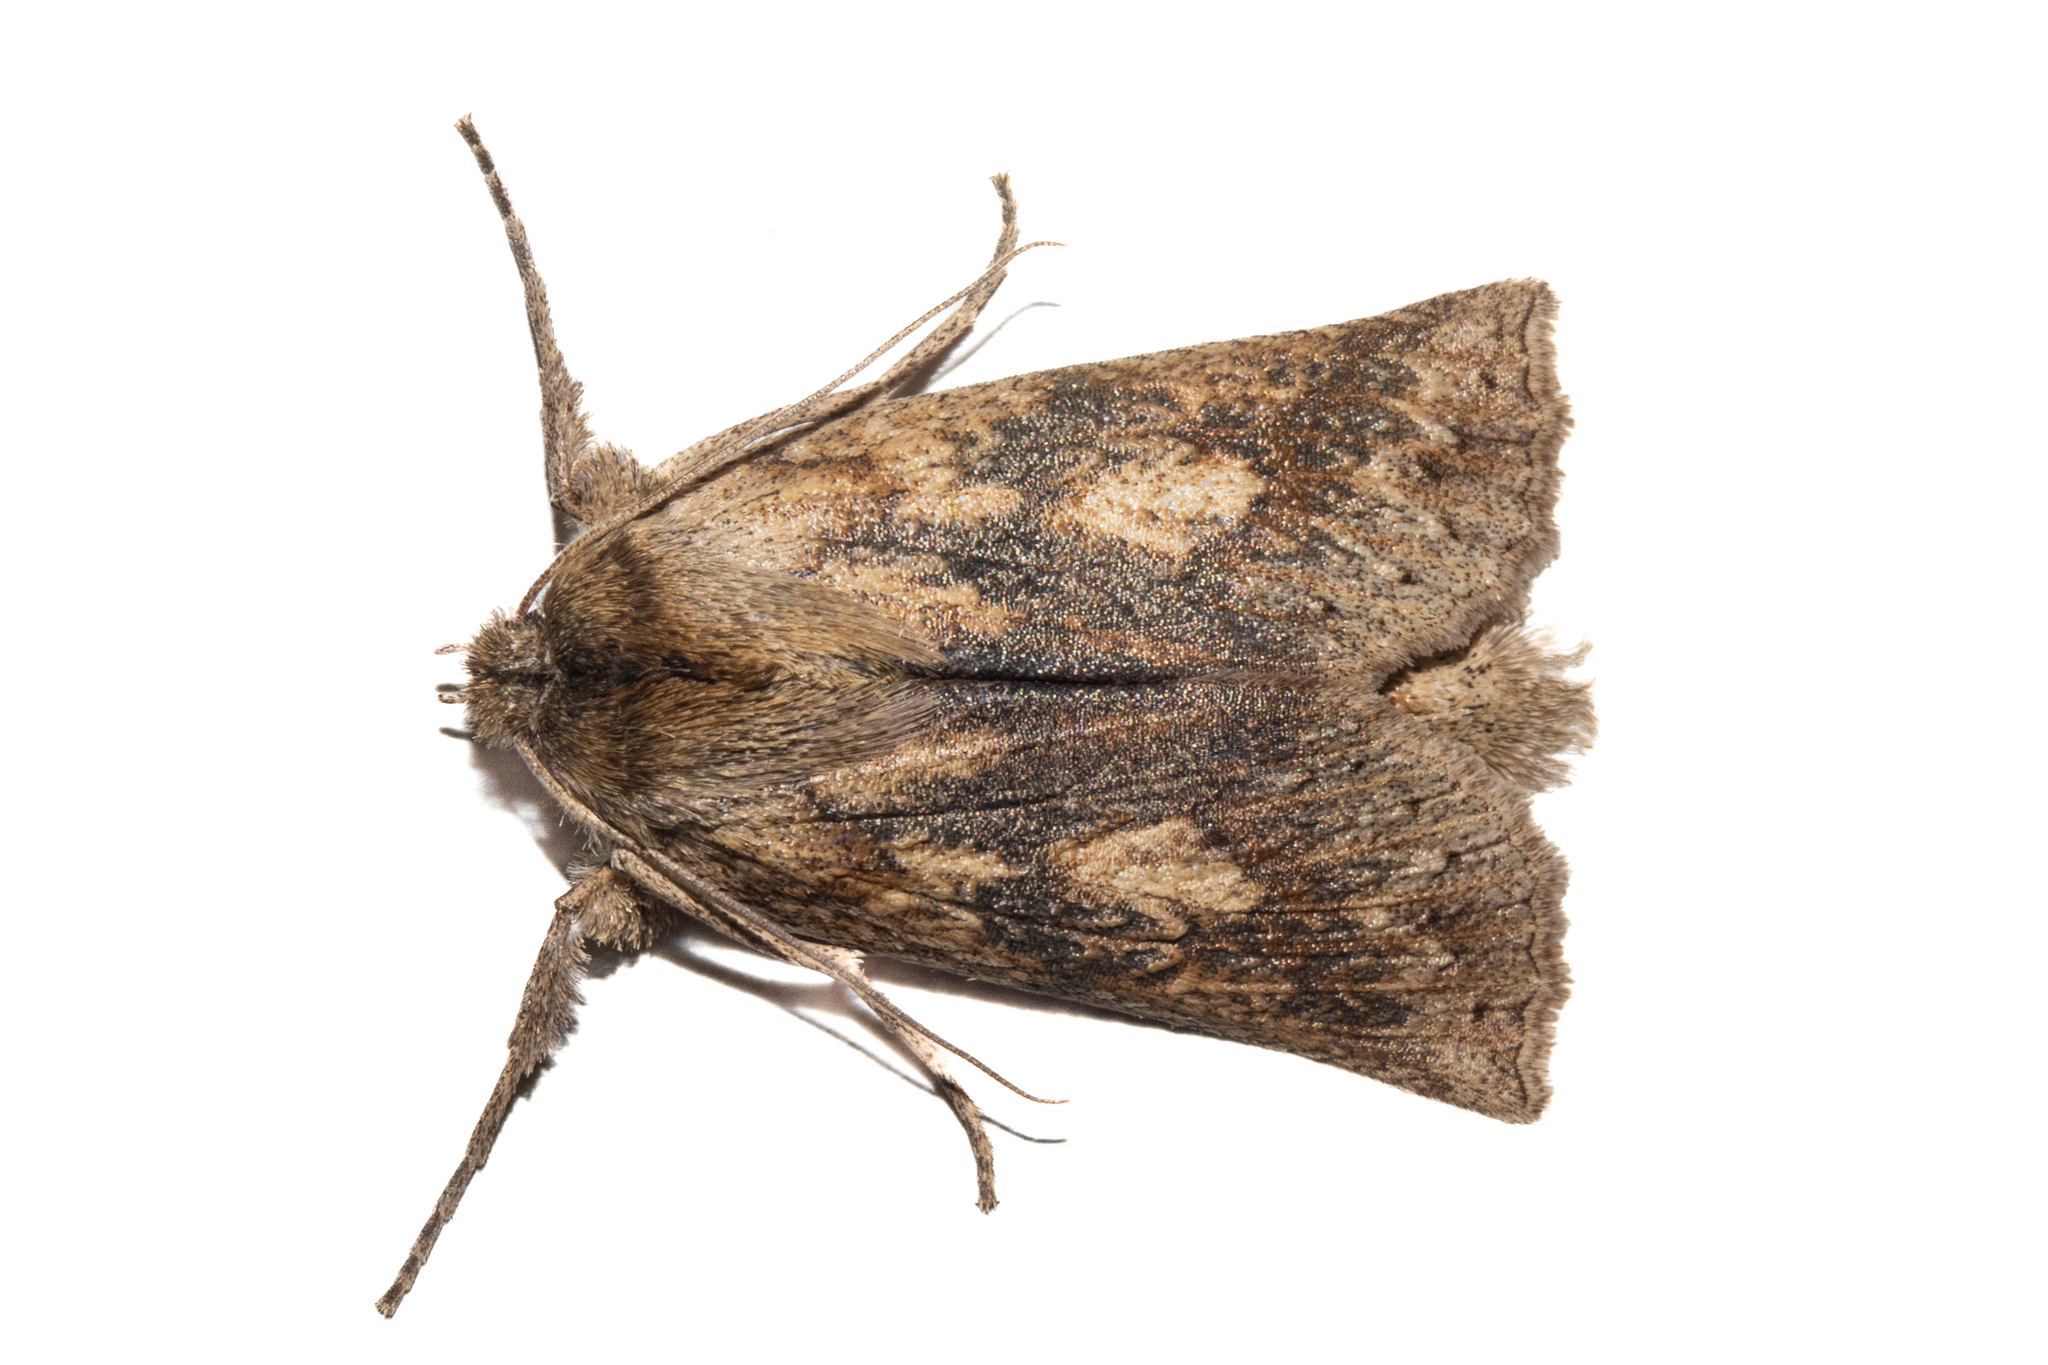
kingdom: Animalia
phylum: Arthropoda
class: Insecta
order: Lepidoptera
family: Geometridae
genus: Declana
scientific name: Declana leptomera
